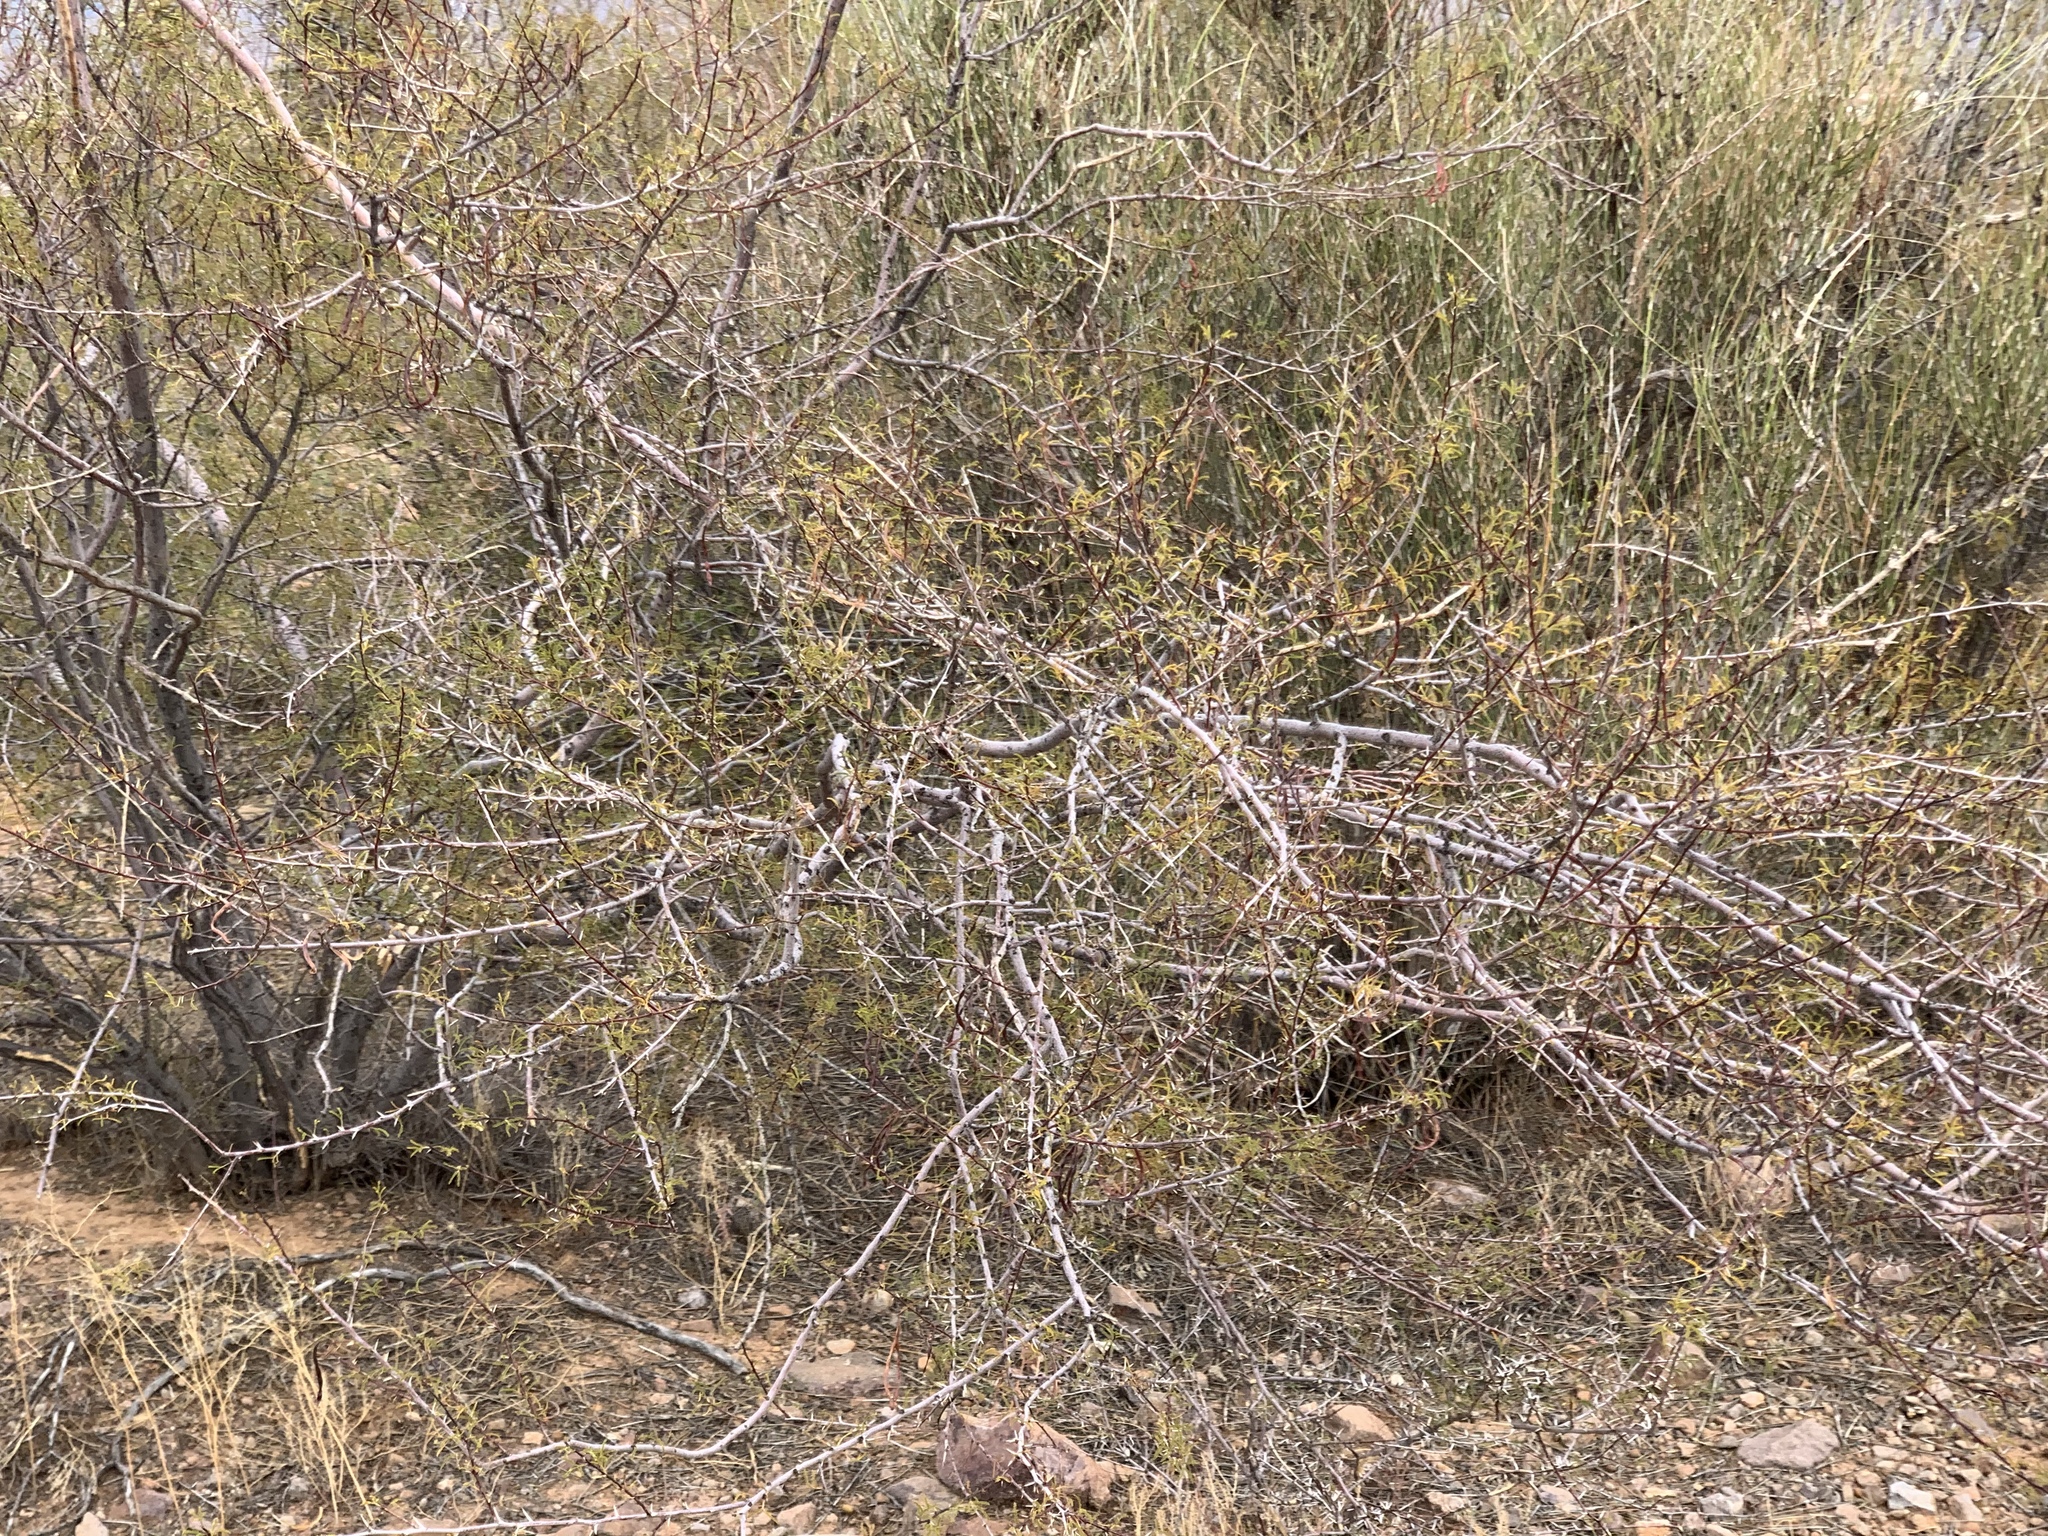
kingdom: Plantae
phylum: Tracheophyta
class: Magnoliopsida
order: Fabales
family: Fabaceae
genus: Vachellia
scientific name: Vachellia constricta
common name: Mescat acacia
